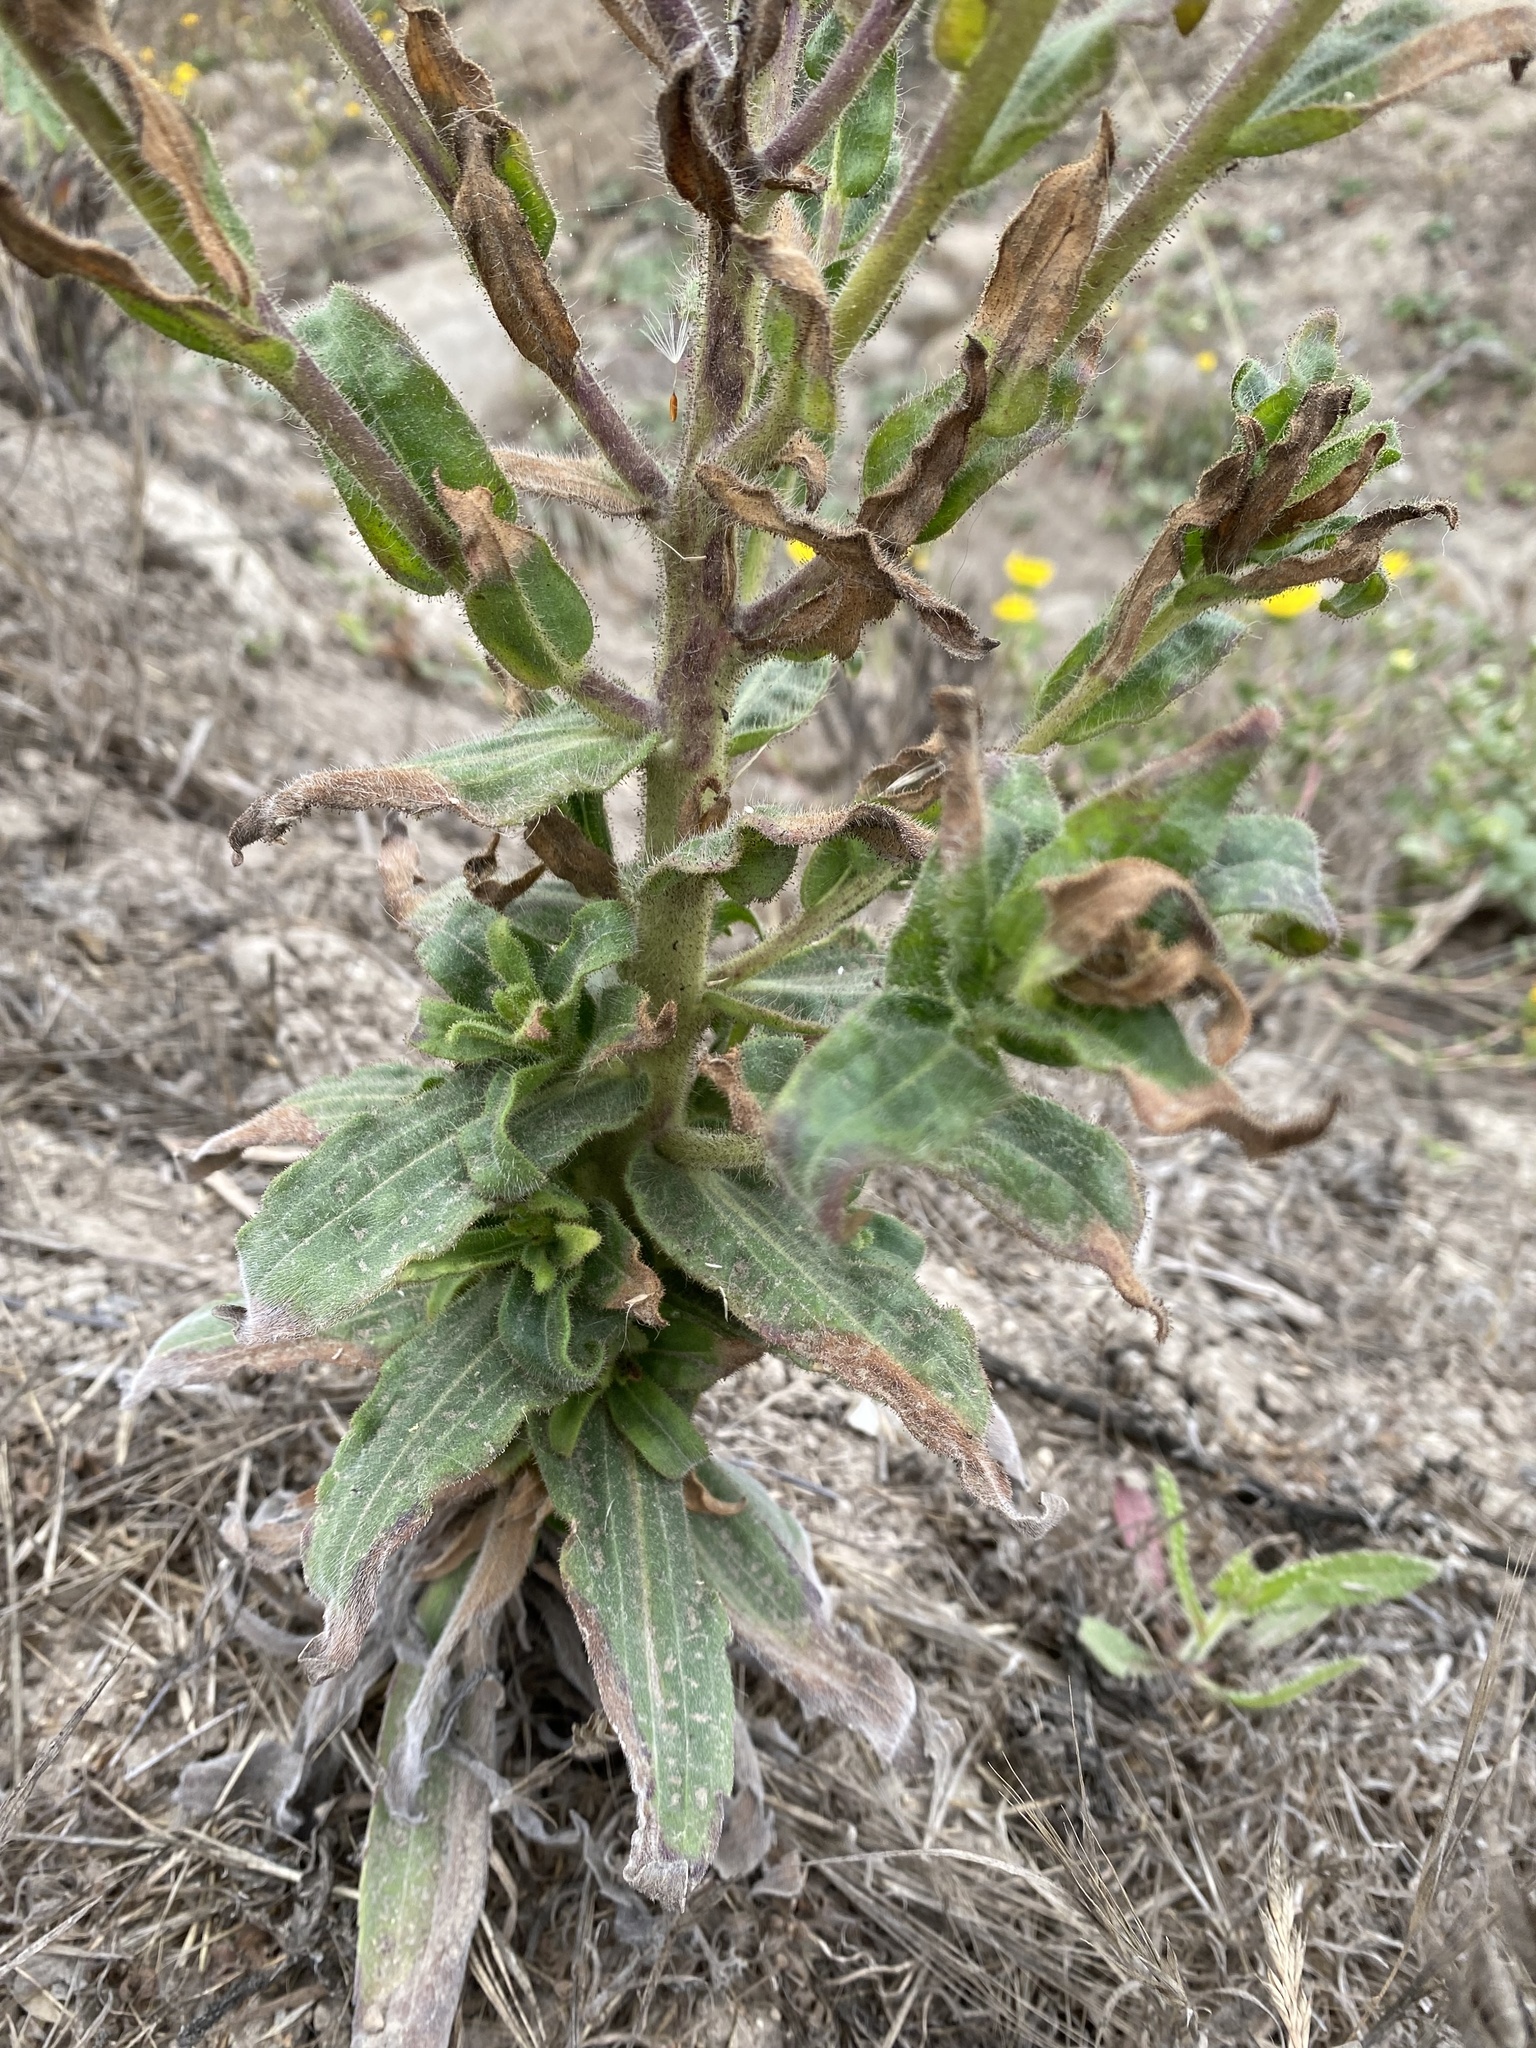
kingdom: Plantae
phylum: Tracheophyta
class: Magnoliopsida
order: Asterales
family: Asteraceae
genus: Madia
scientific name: Madia sativa
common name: Coast tarweed
